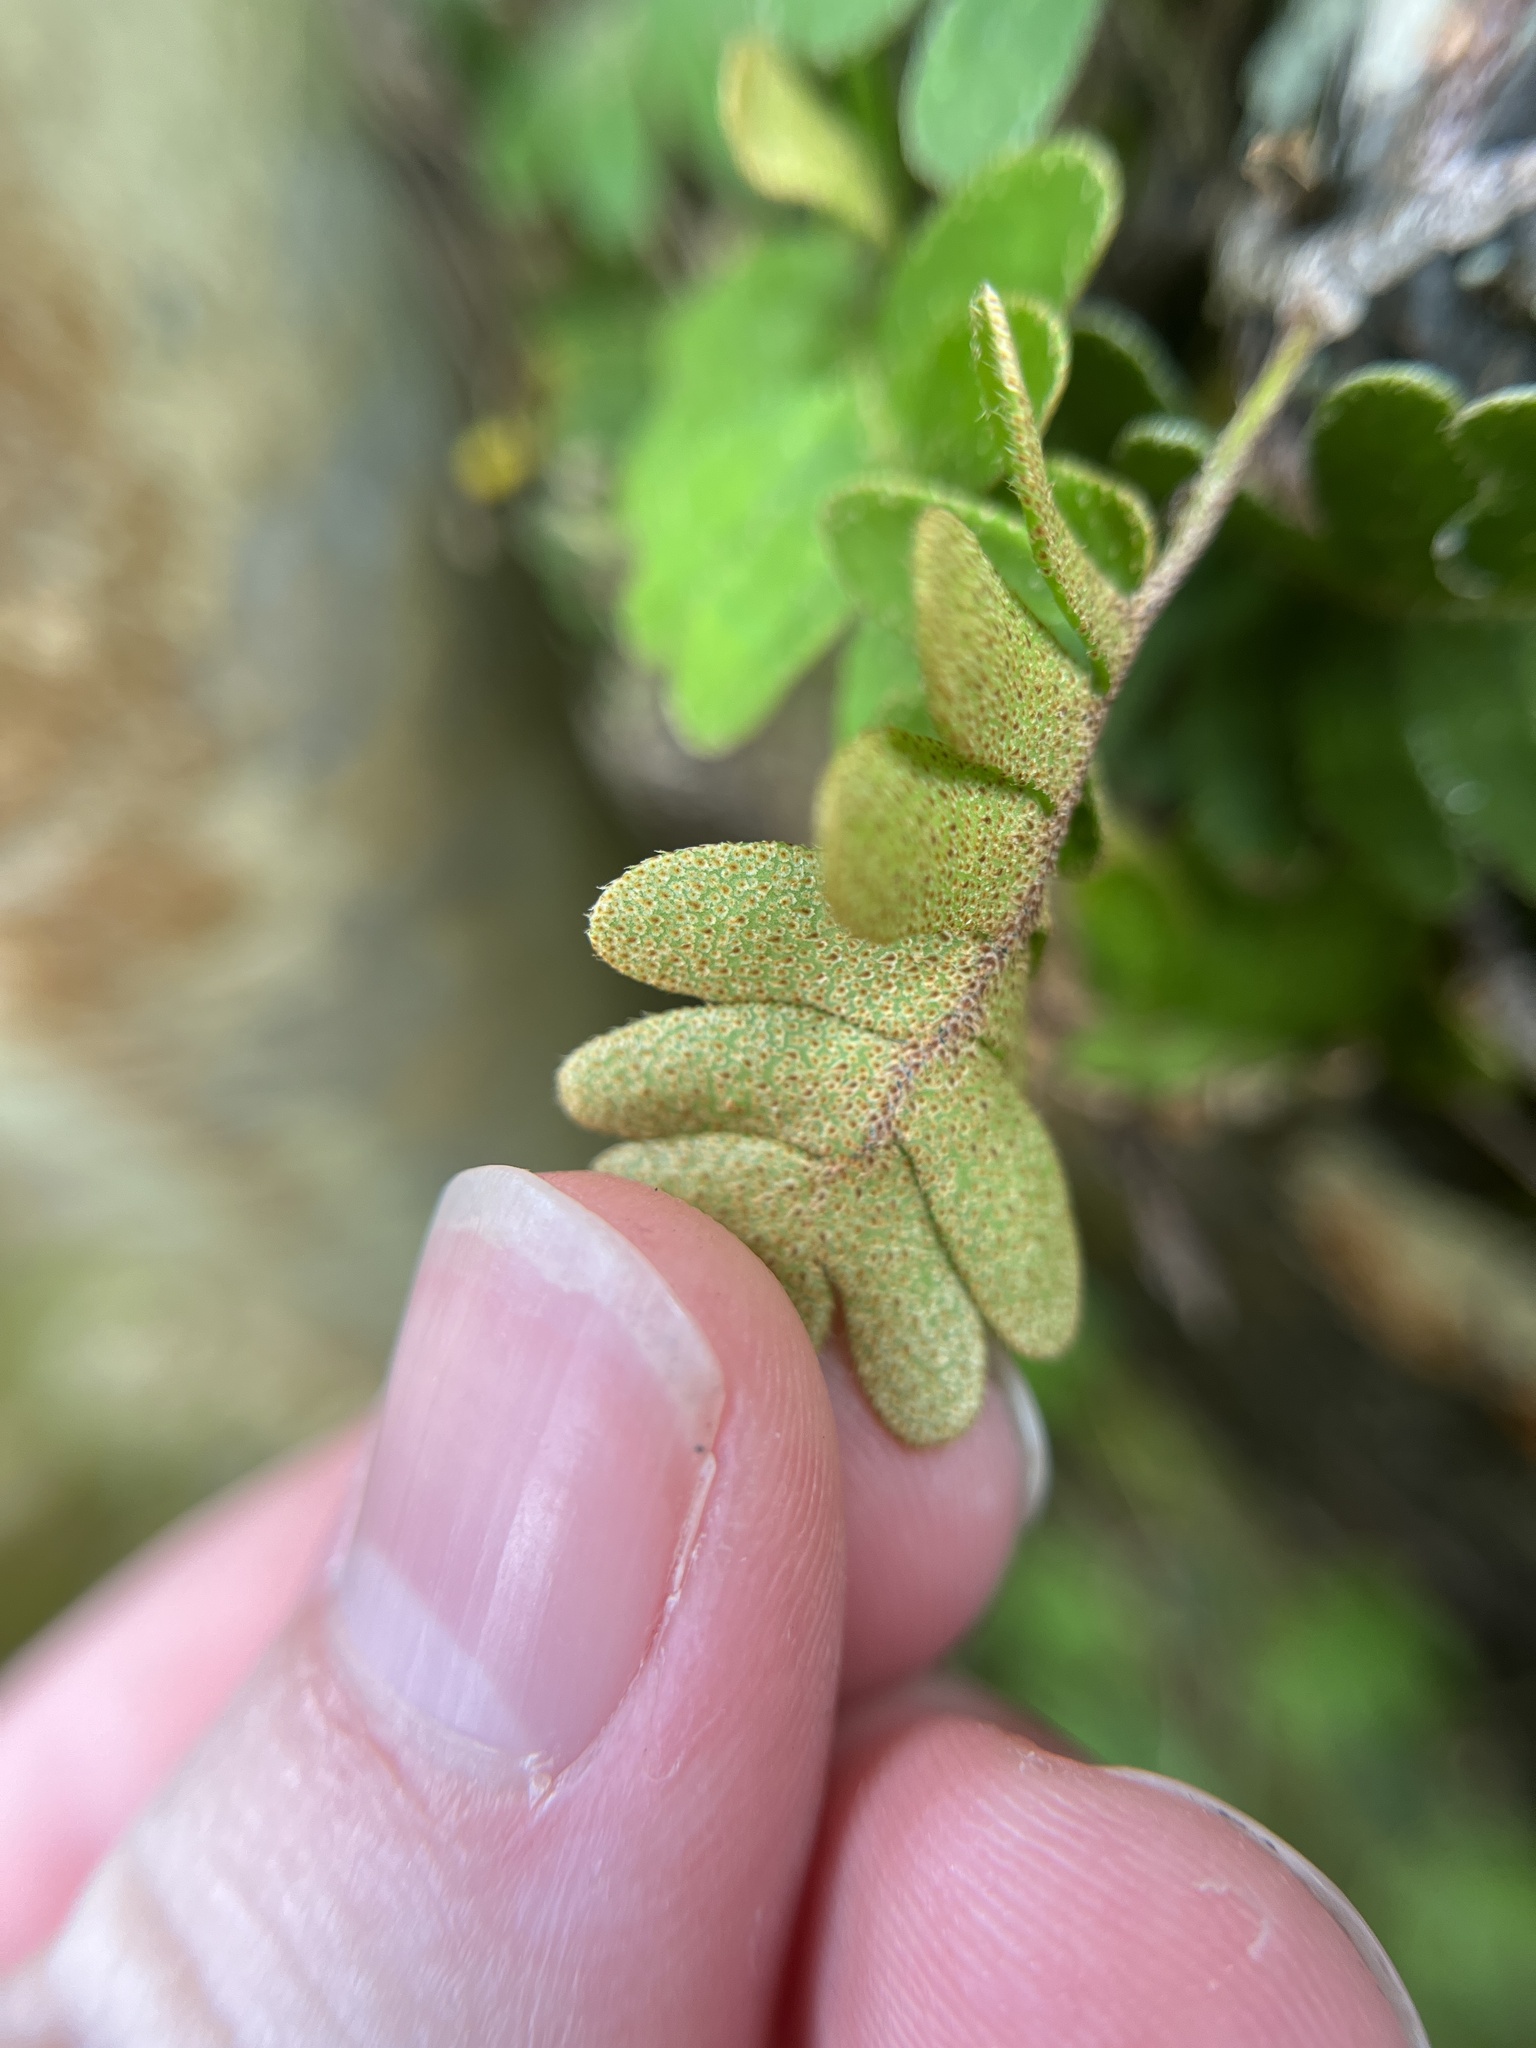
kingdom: Plantae
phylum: Tracheophyta
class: Polypodiopsida
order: Polypodiales
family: Polypodiaceae
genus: Pleopeltis
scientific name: Pleopeltis polypodioides
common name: Resurrection fern
